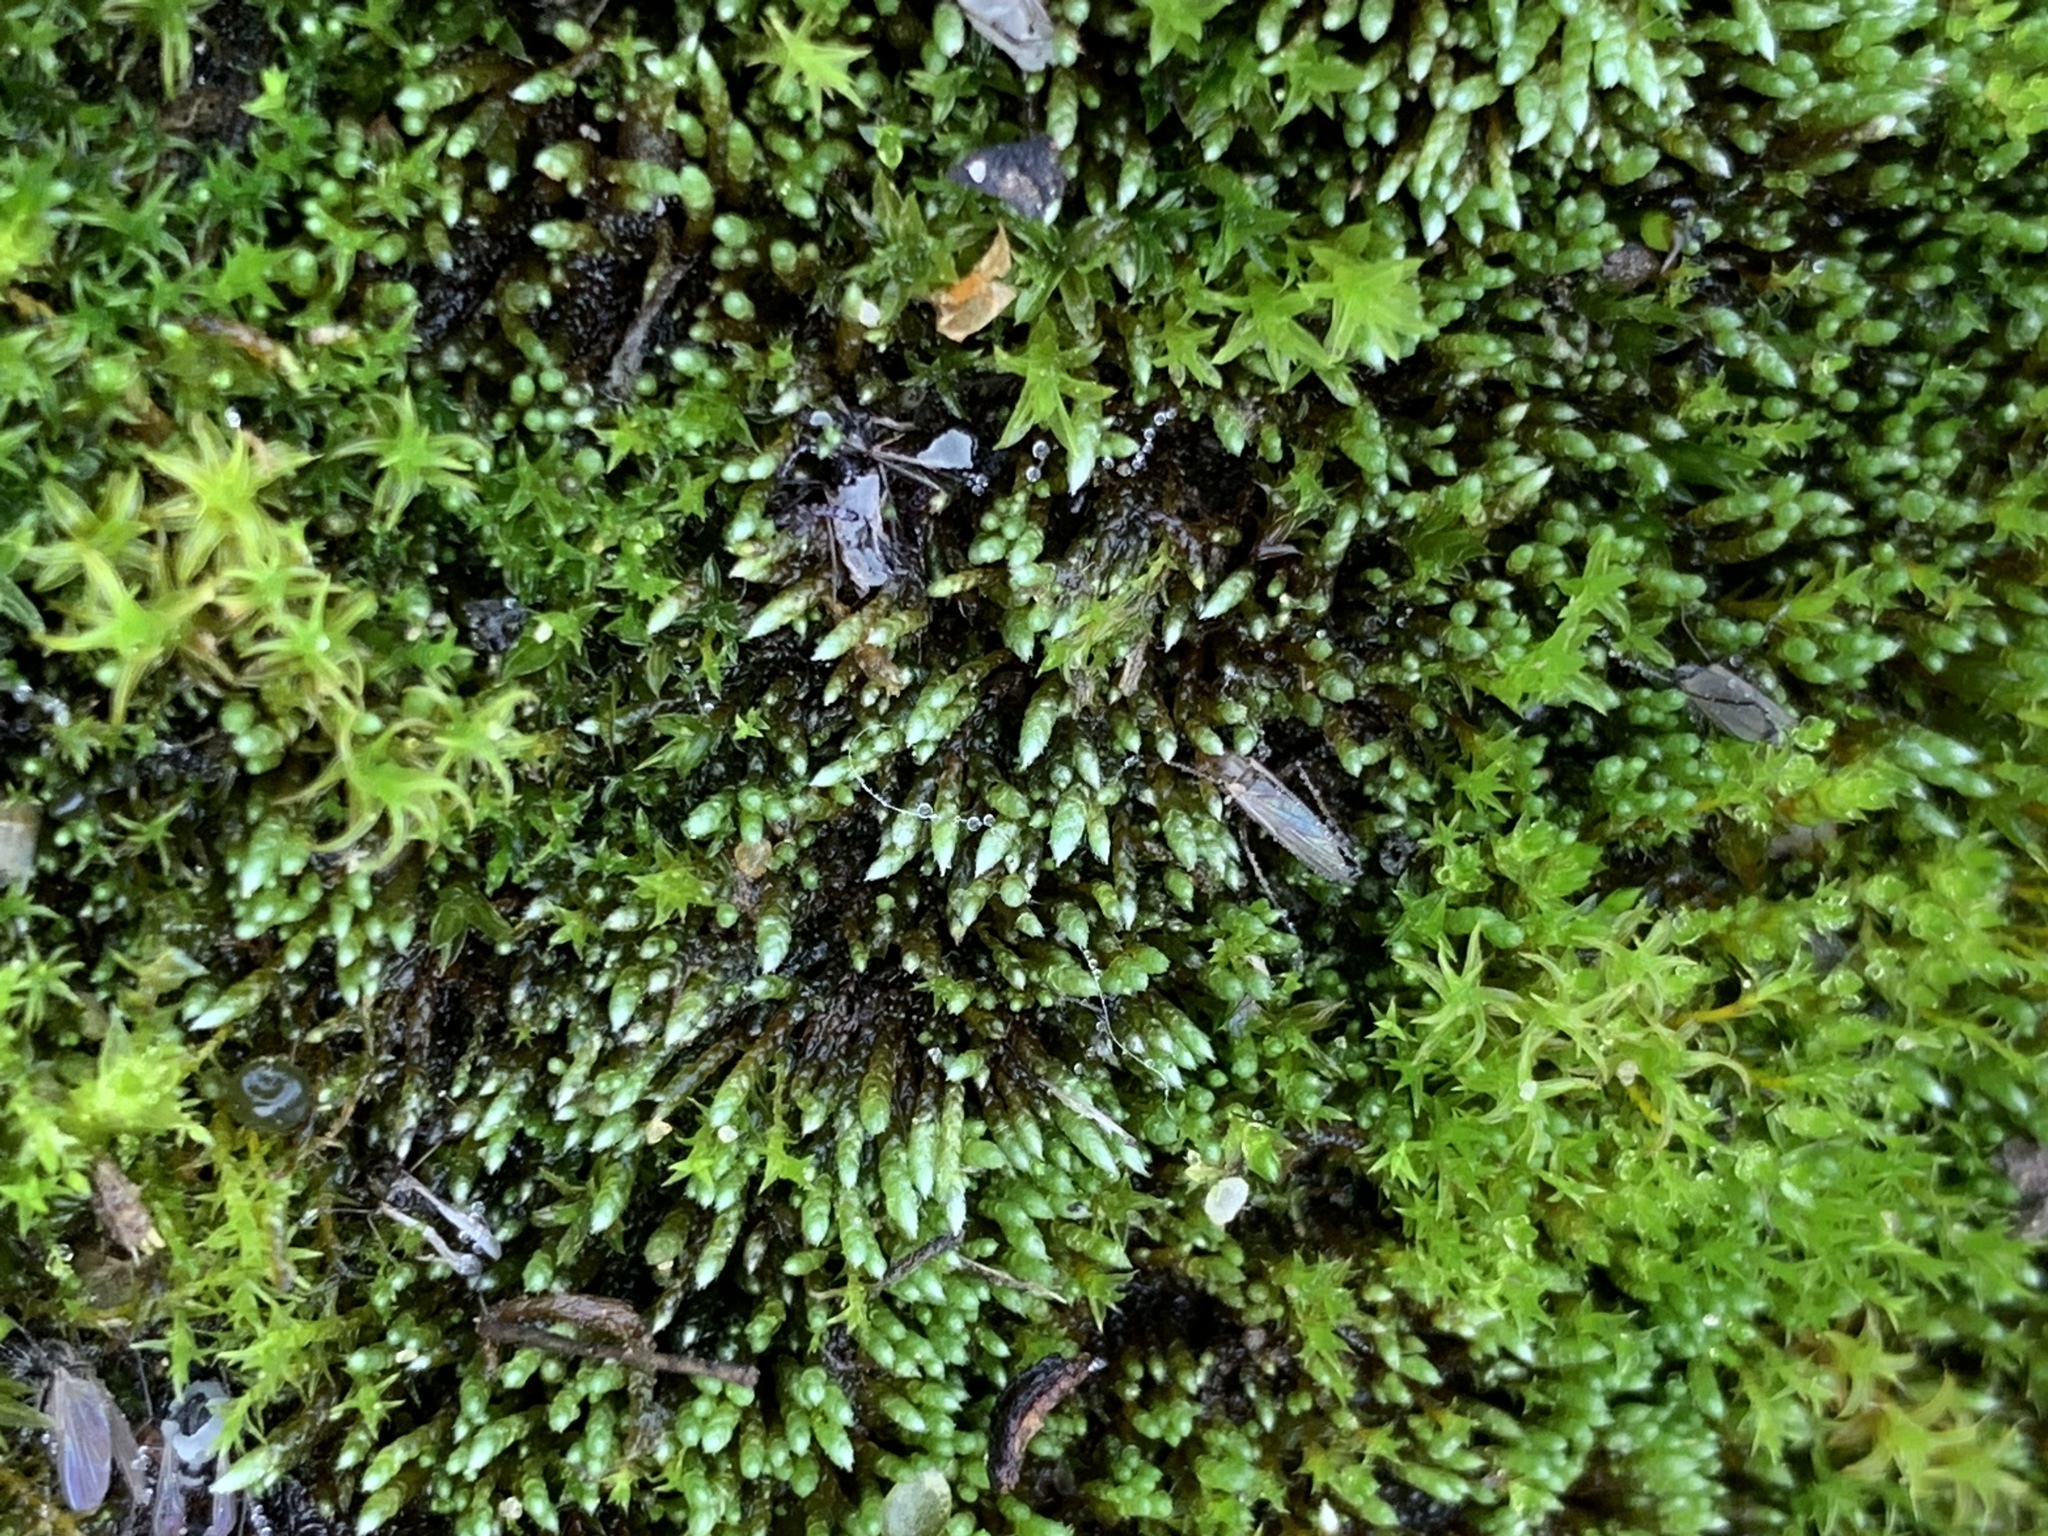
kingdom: Plantae
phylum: Bryophyta
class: Bryopsida
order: Bryales
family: Bryaceae
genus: Bryum
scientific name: Bryum argenteum
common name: Silver-moss
